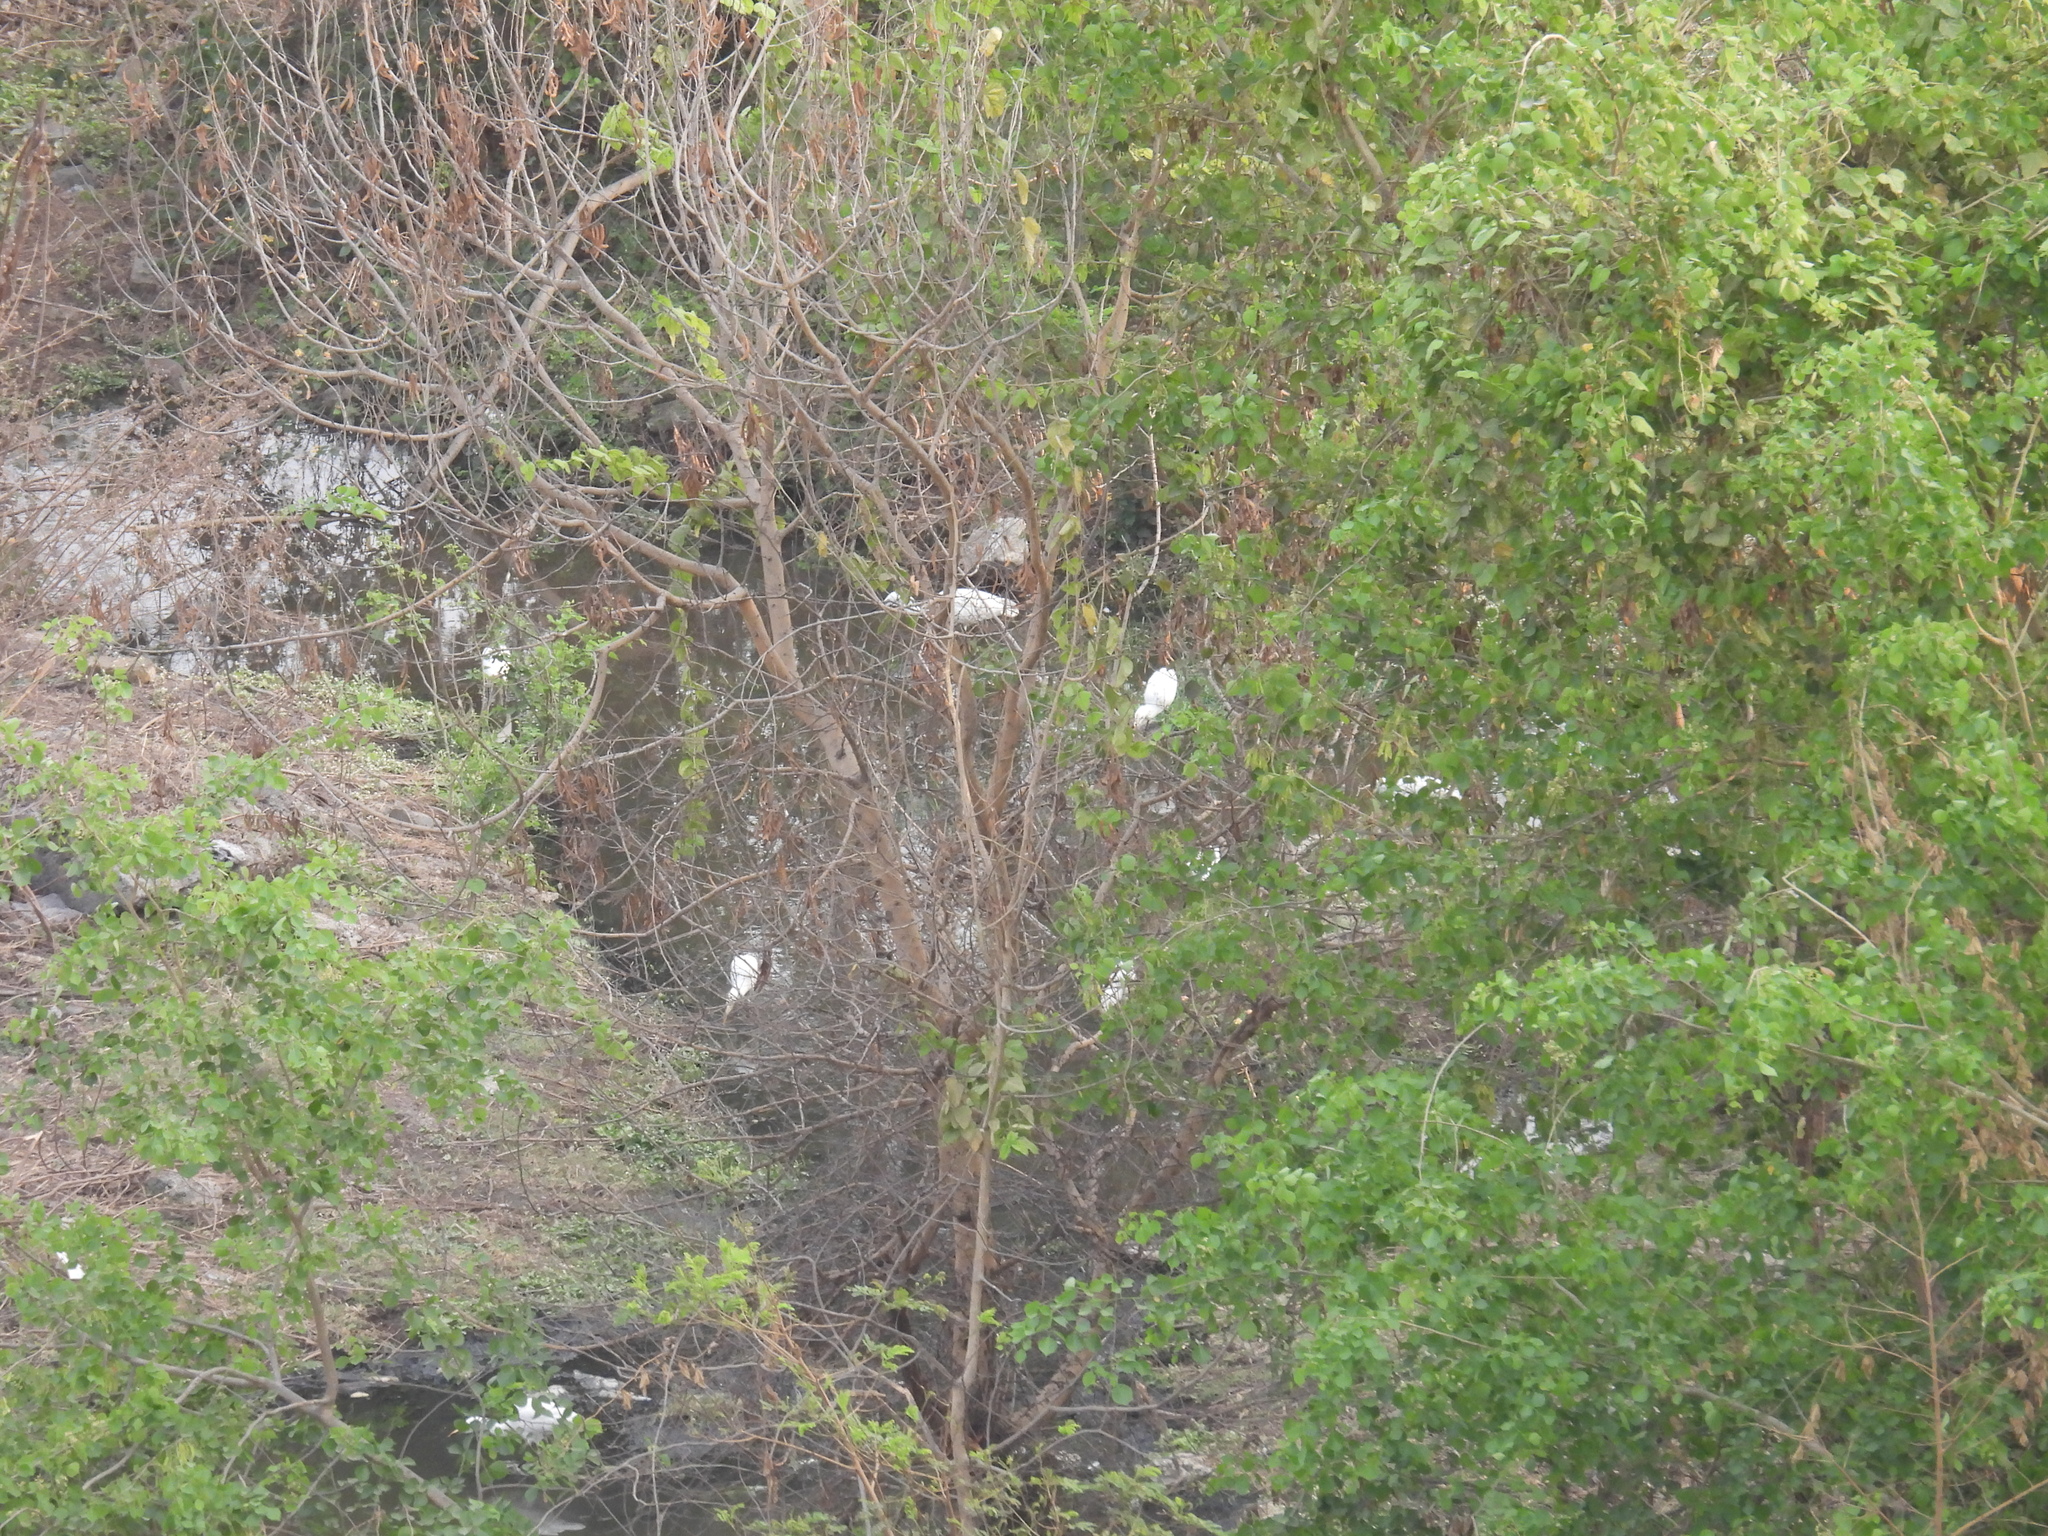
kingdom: Animalia
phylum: Chordata
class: Aves
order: Pelecaniformes
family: Ardeidae
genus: Bubulcus
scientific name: Bubulcus coromandus
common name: Eastern cattle egret
